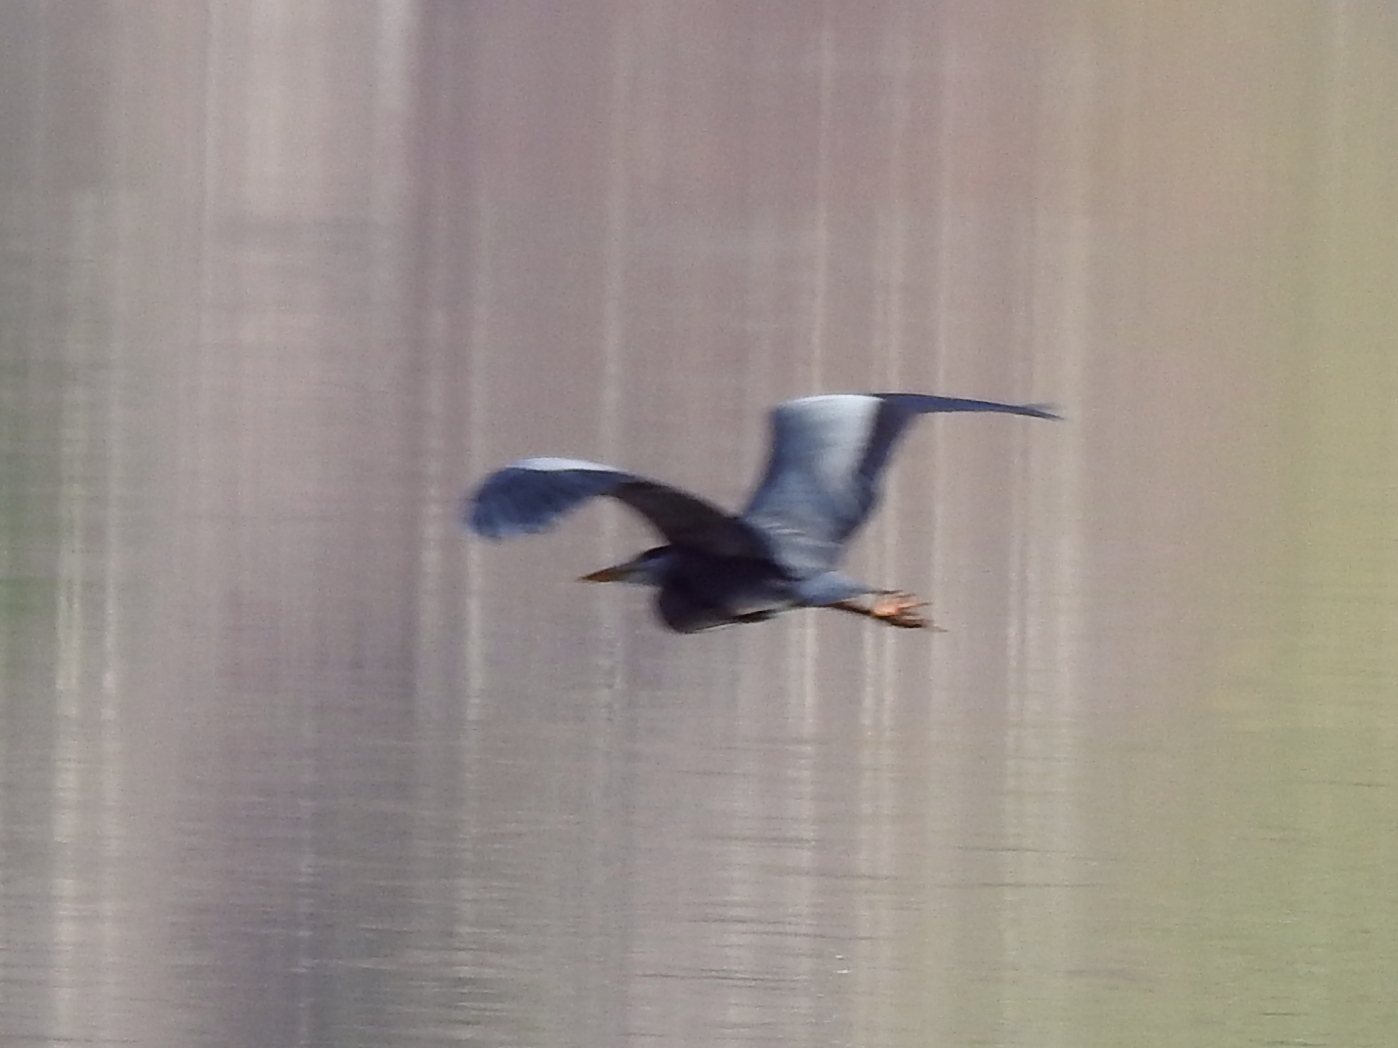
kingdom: Animalia
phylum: Chordata
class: Aves
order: Pelecaniformes
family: Ardeidae
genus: Ardea
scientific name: Ardea cinerea
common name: Grey heron
